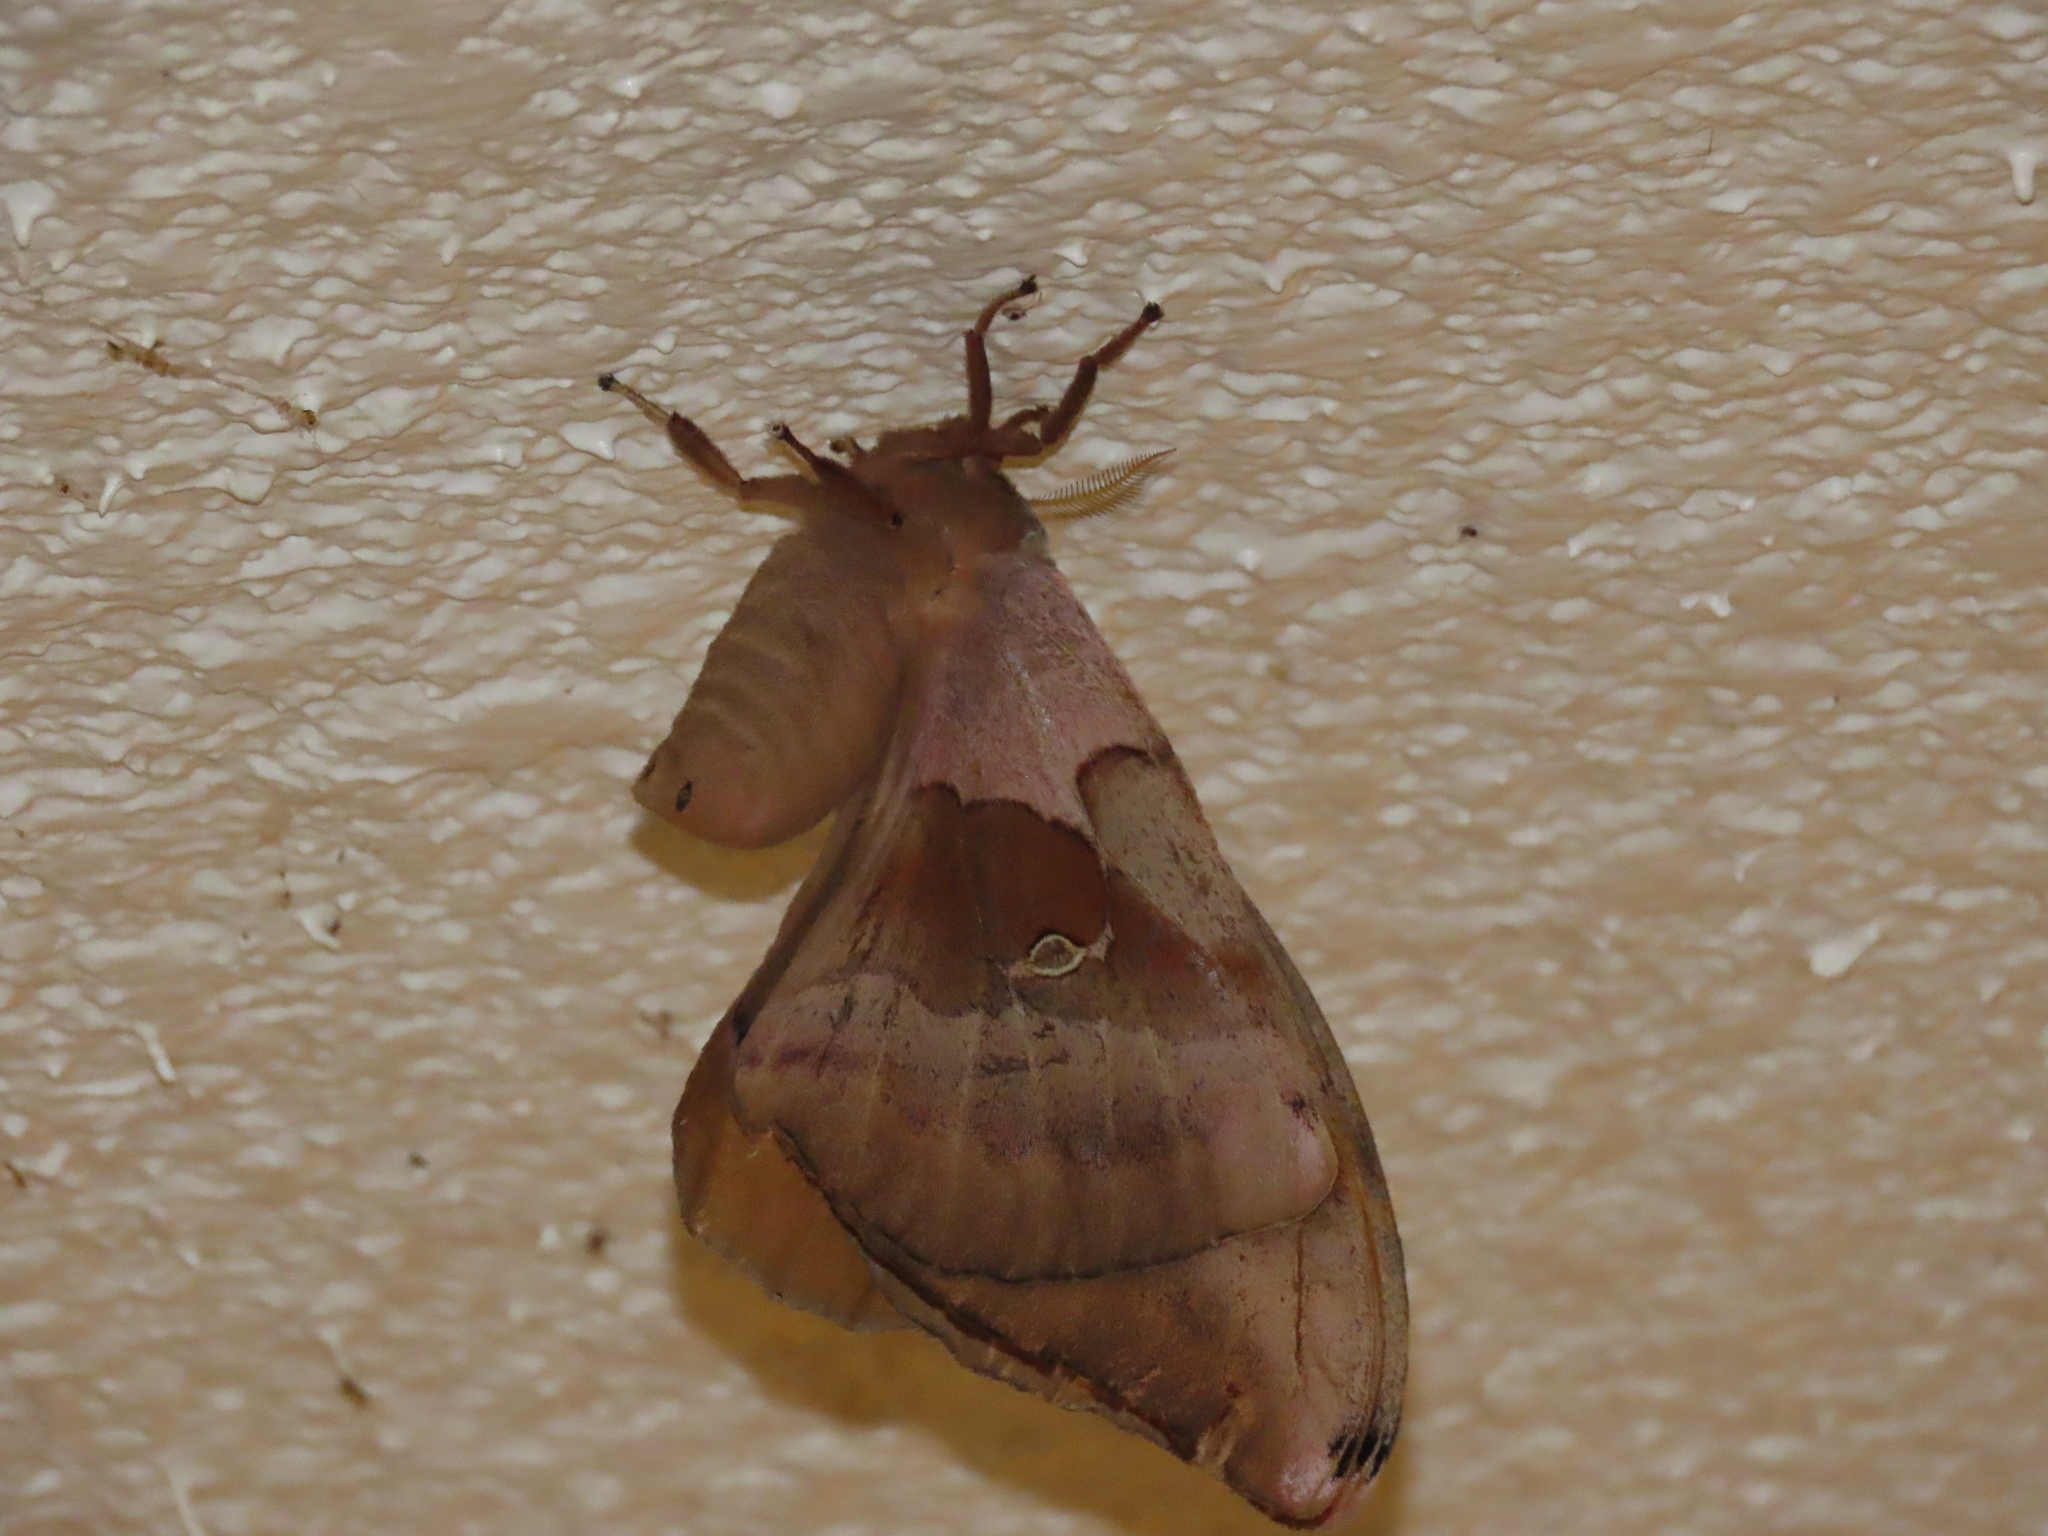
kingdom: Animalia
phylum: Arthropoda
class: Insecta
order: Lepidoptera
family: Saturniidae
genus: Antheraea
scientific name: Antheraea polyphemus
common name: Polyphemus moth
